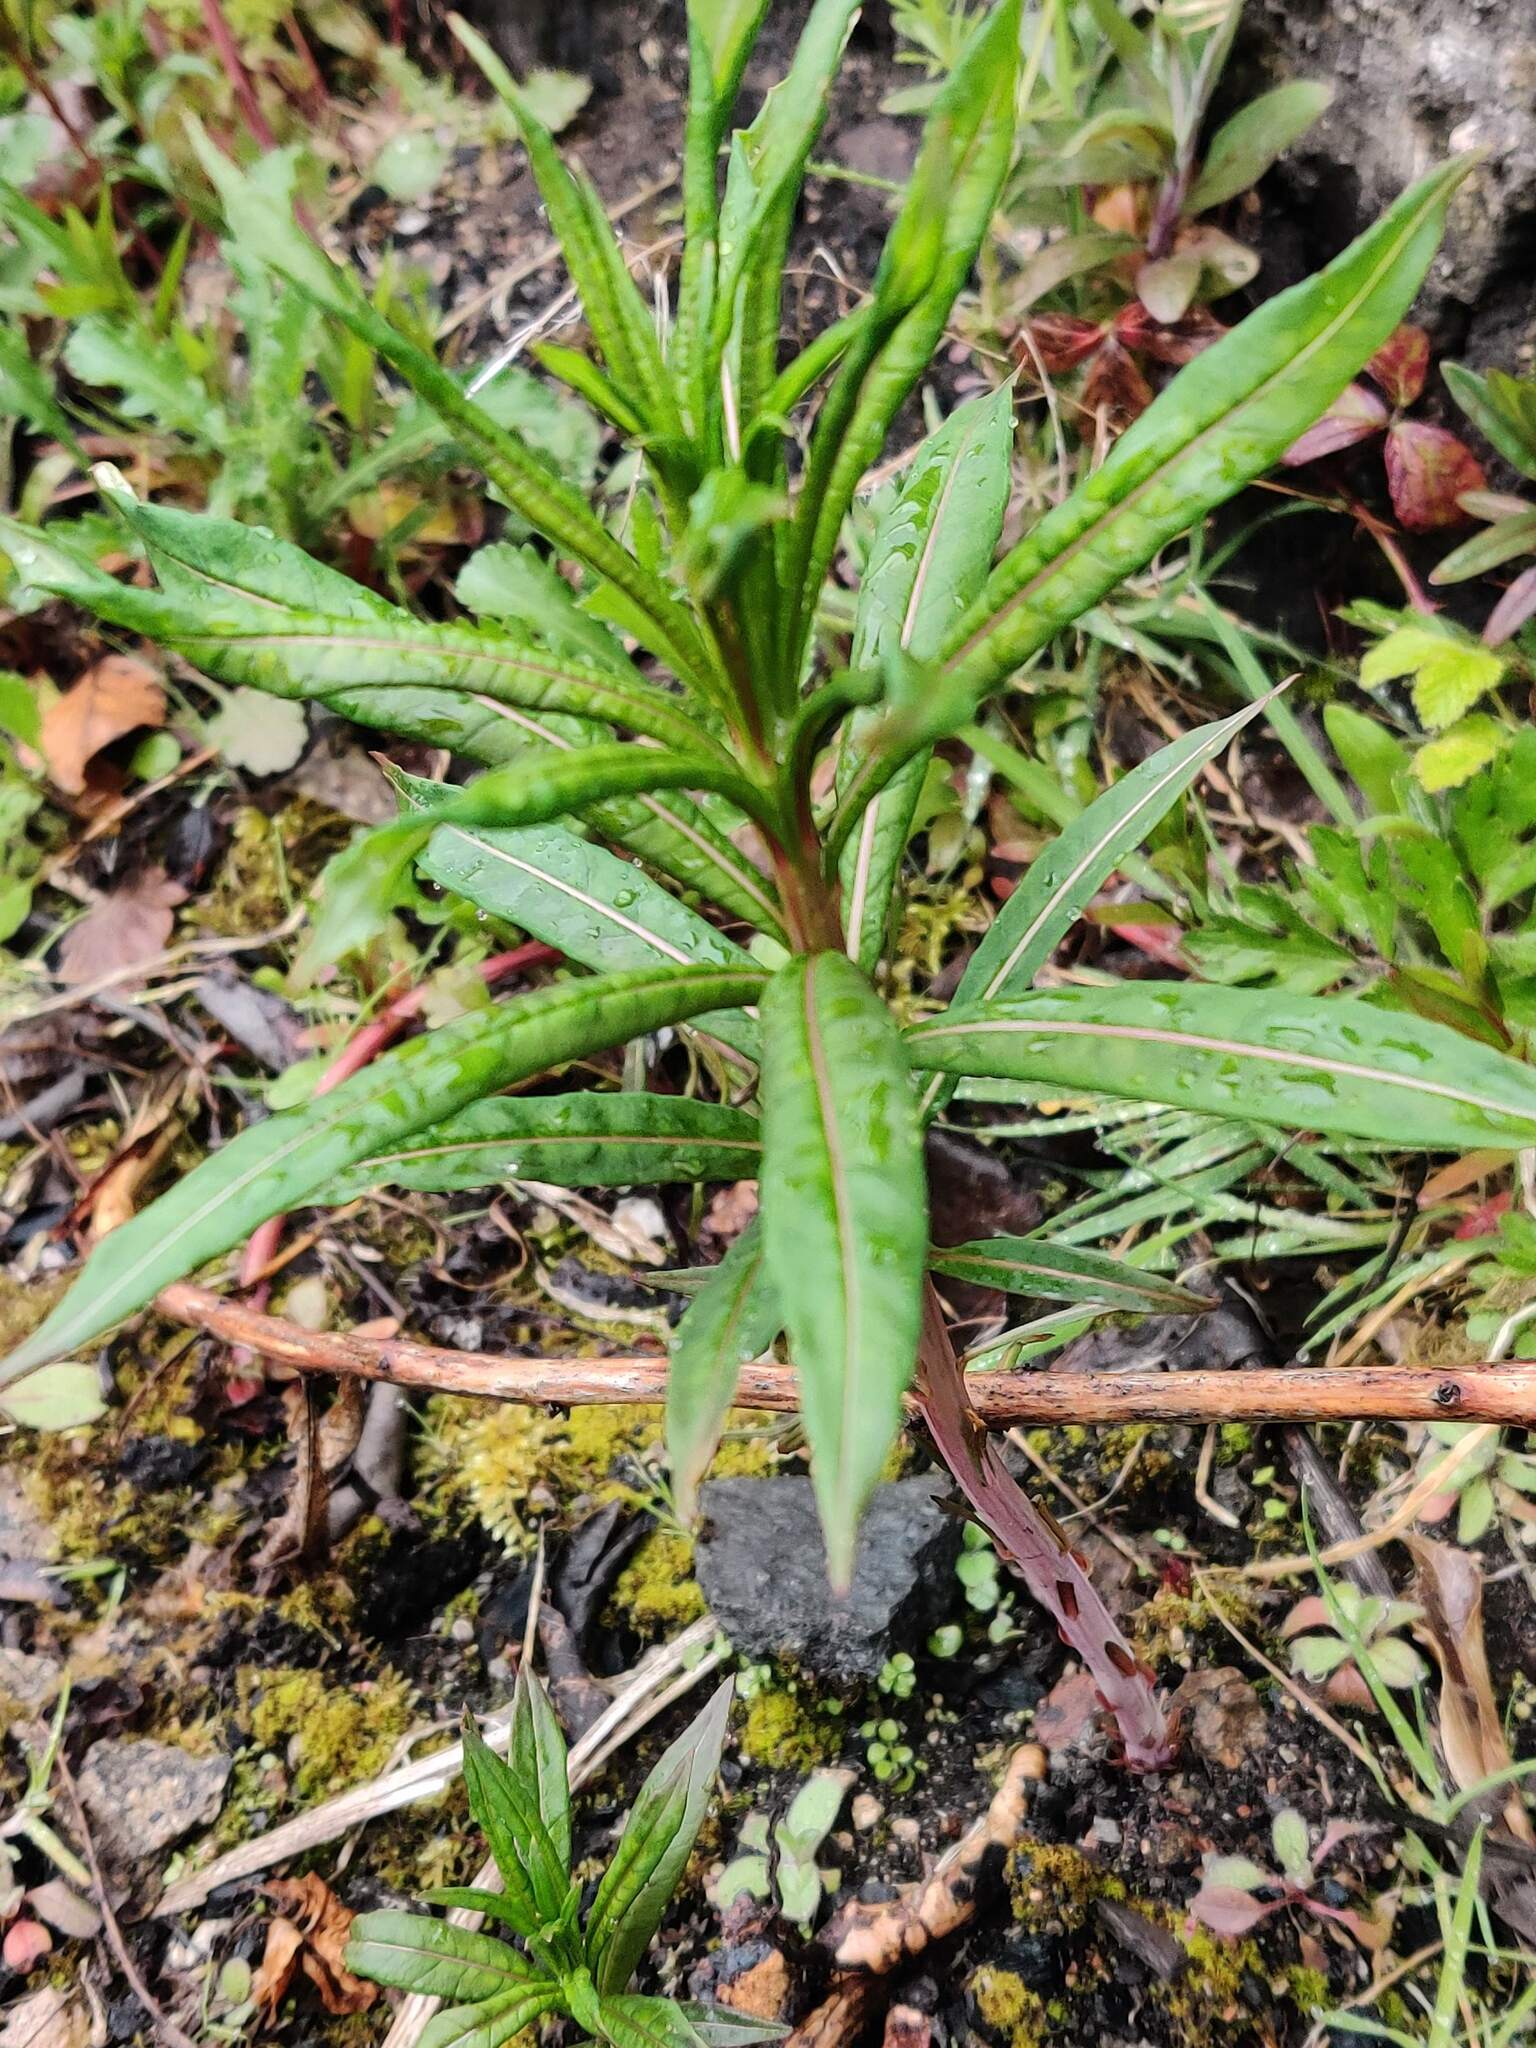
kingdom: Plantae
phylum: Tracheophyta
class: Magnoliopsida
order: Myrtales
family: Onagraceae
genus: Chamaenerion
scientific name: Chamaenerion angustifolium
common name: Fireweed
